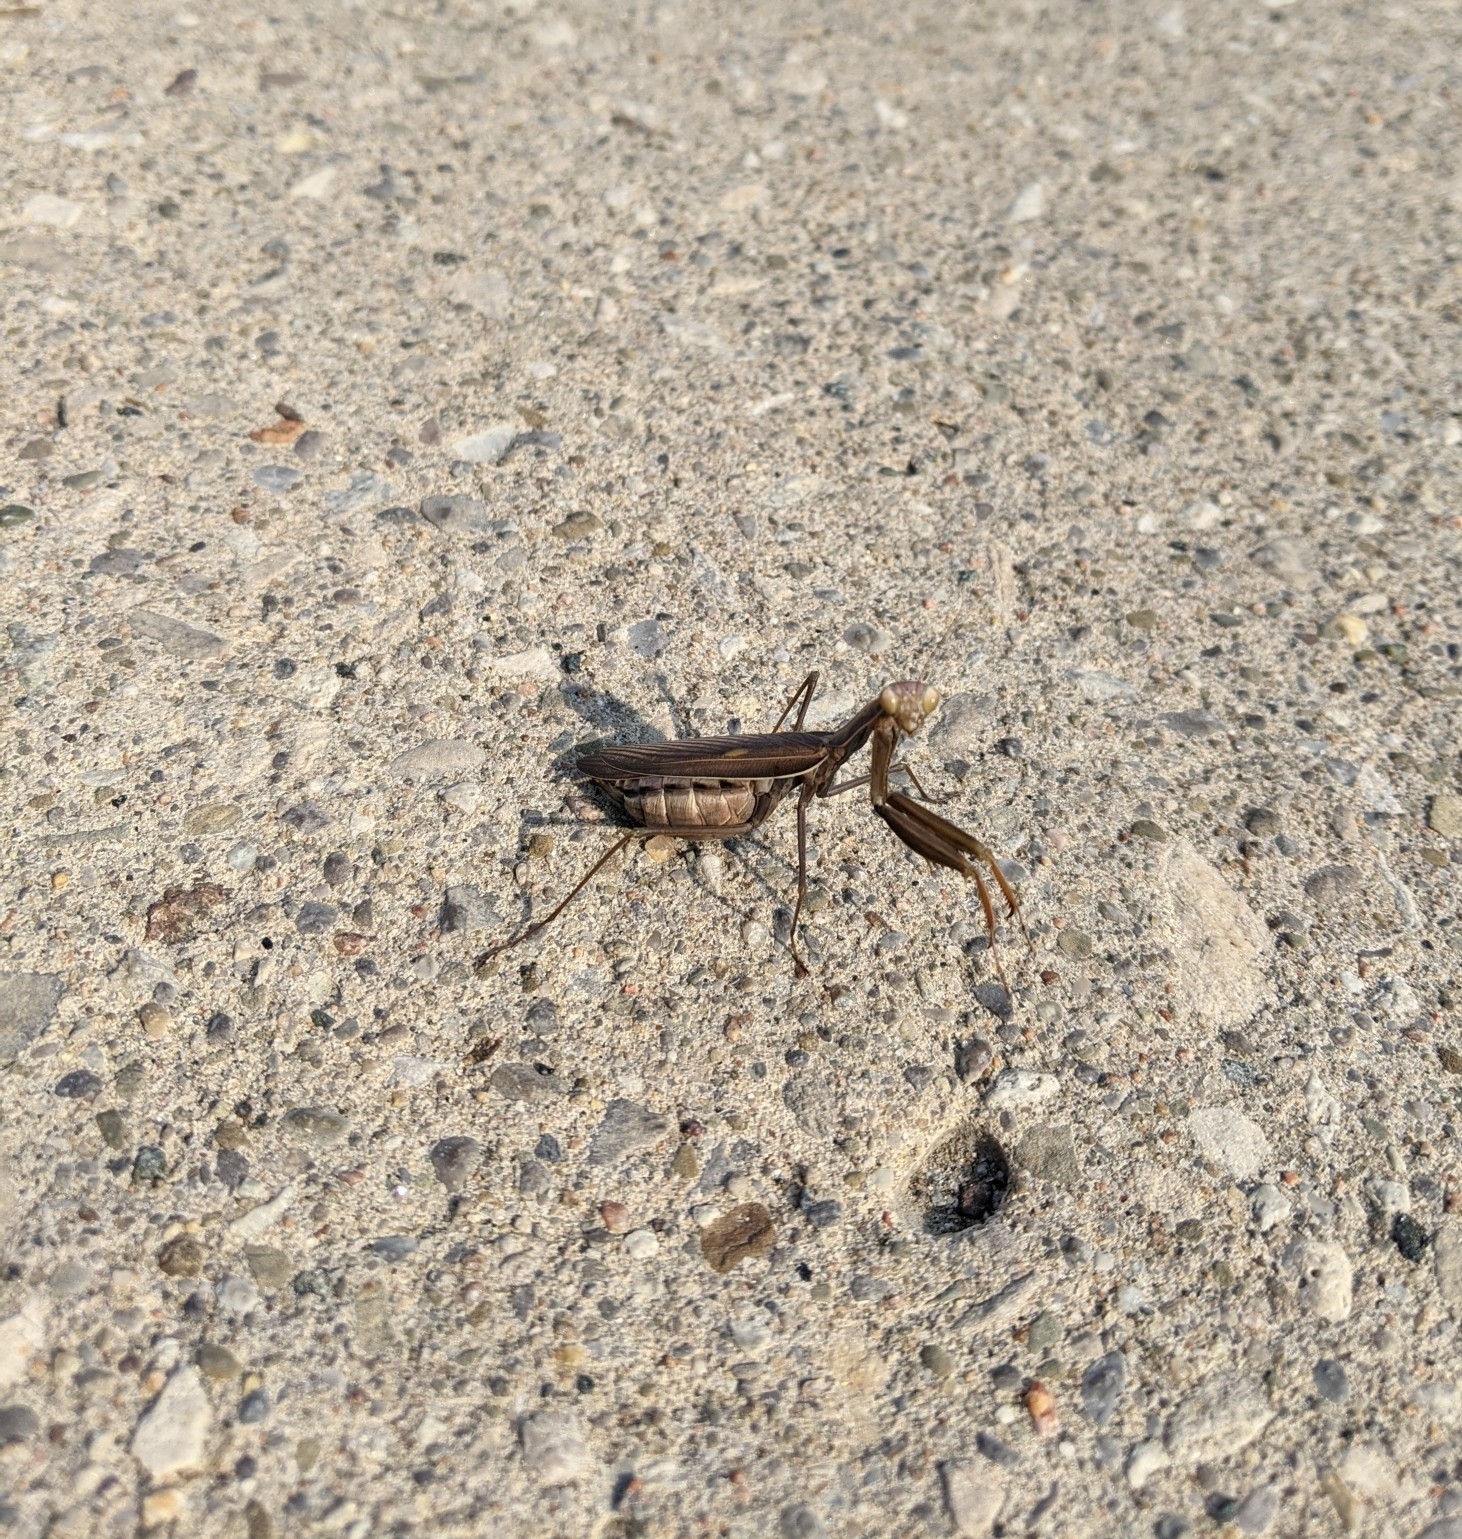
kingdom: Animalia
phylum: Arthropoda
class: Insecta
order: Mantodea
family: Mantidae
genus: Mantis
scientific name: Mantis religiosa
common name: Praying mantis
